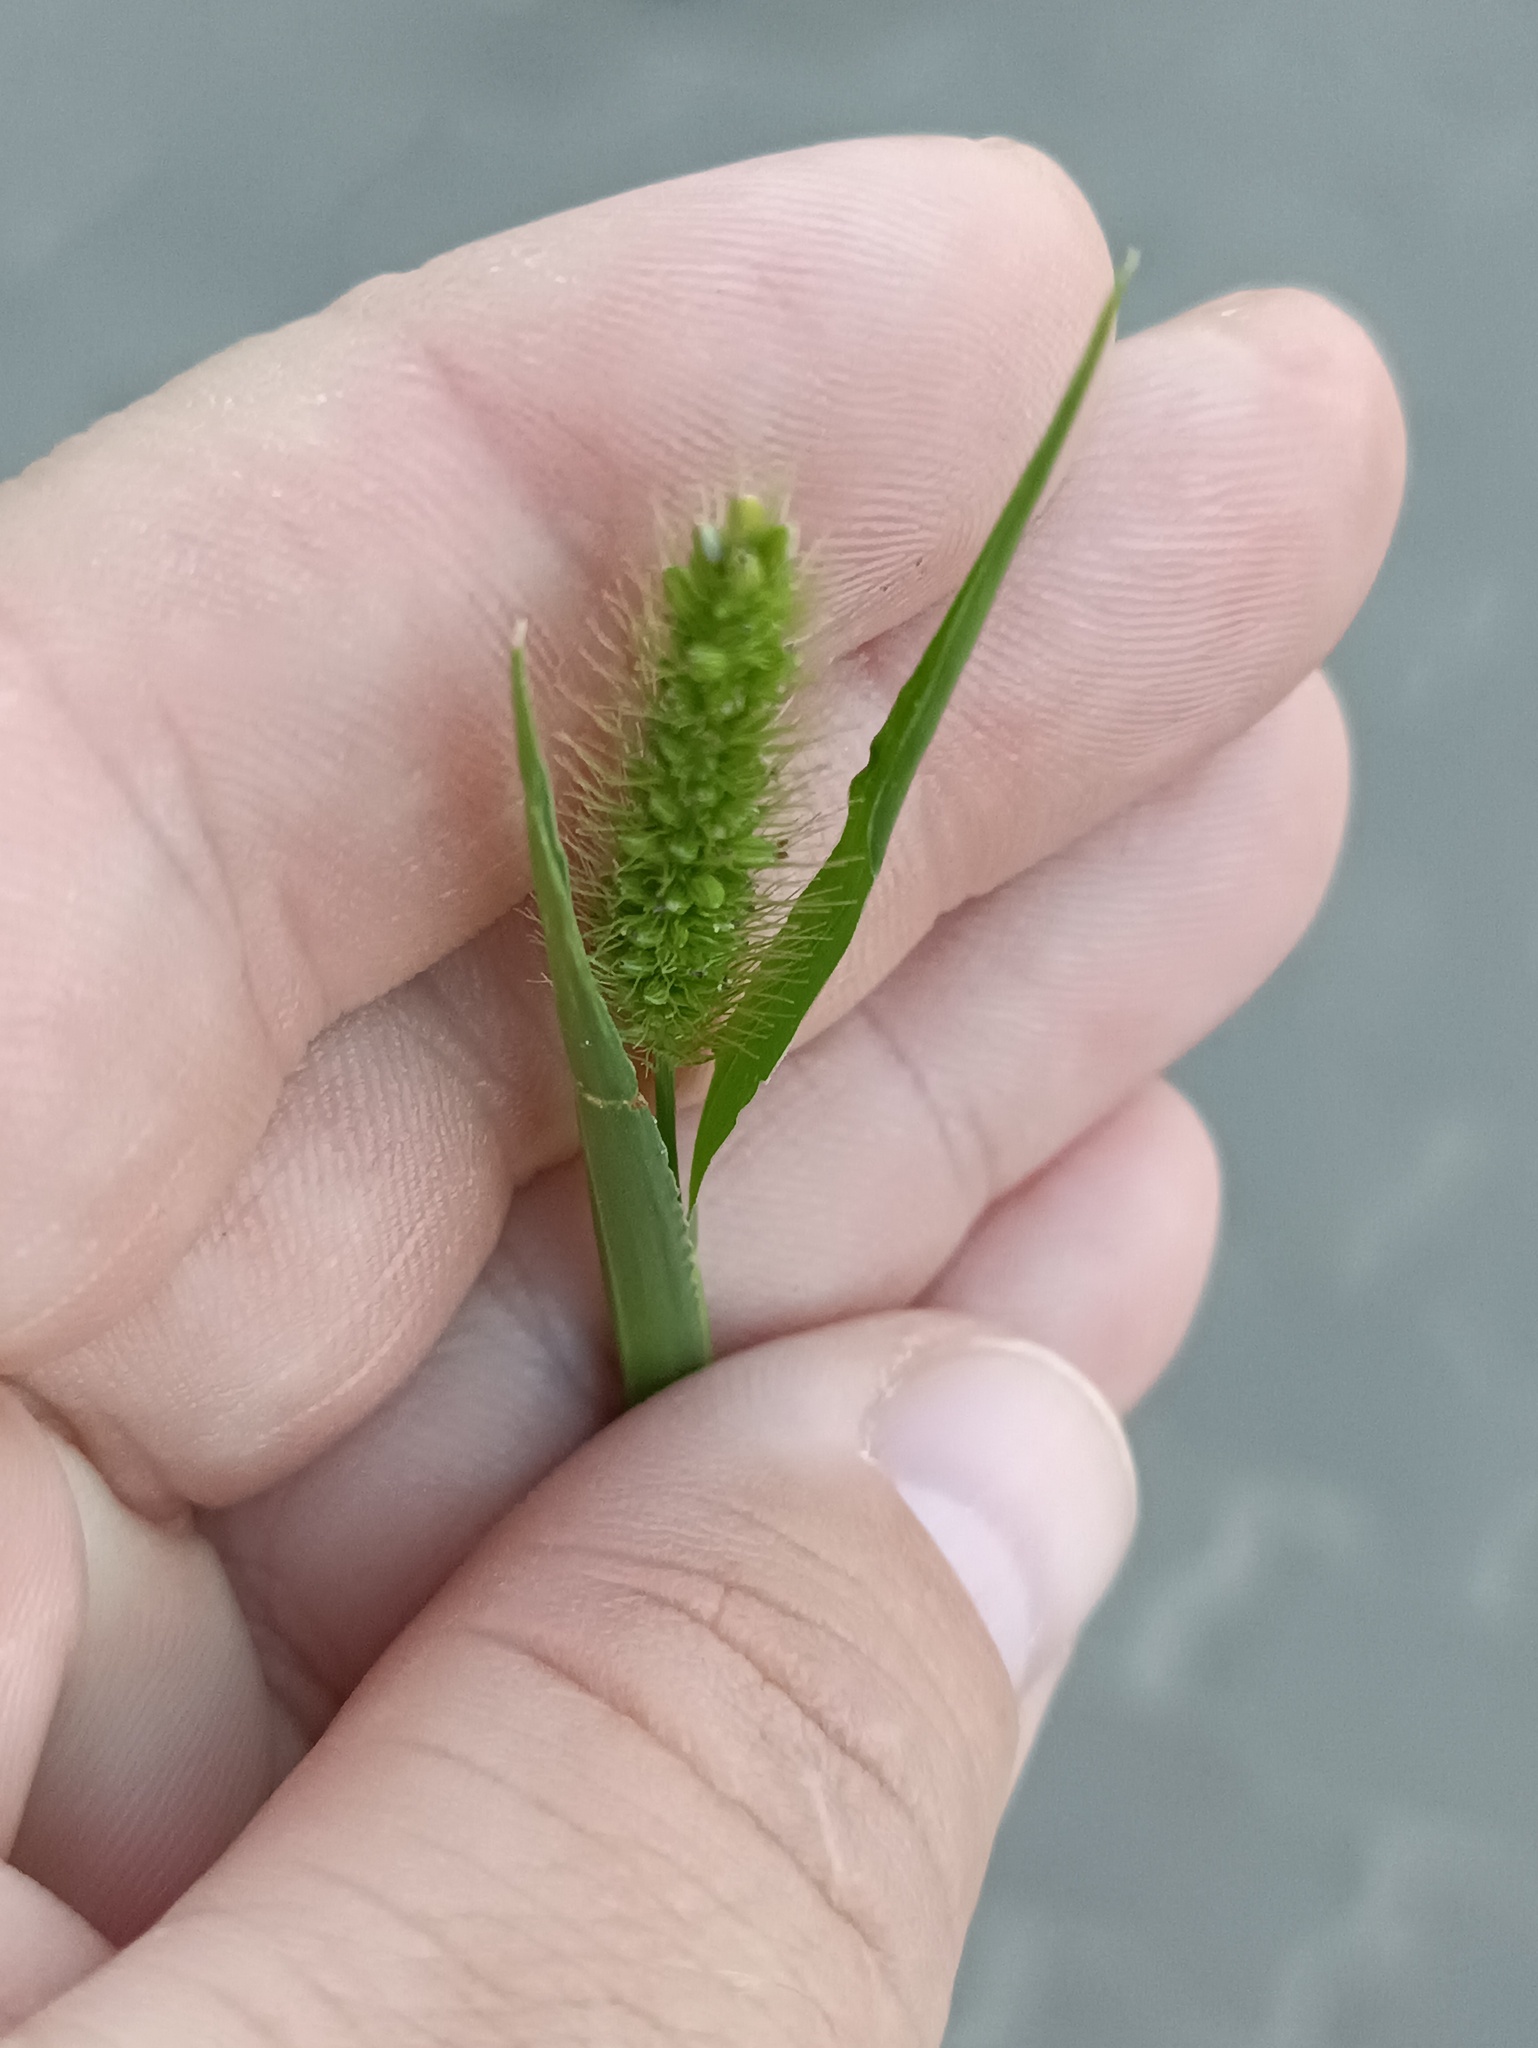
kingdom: Plantae
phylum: Tracheophyta
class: Liliopsida
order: Poales
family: Poaceae
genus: Setaria
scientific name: Setaria viridis
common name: Green bristlegrass
